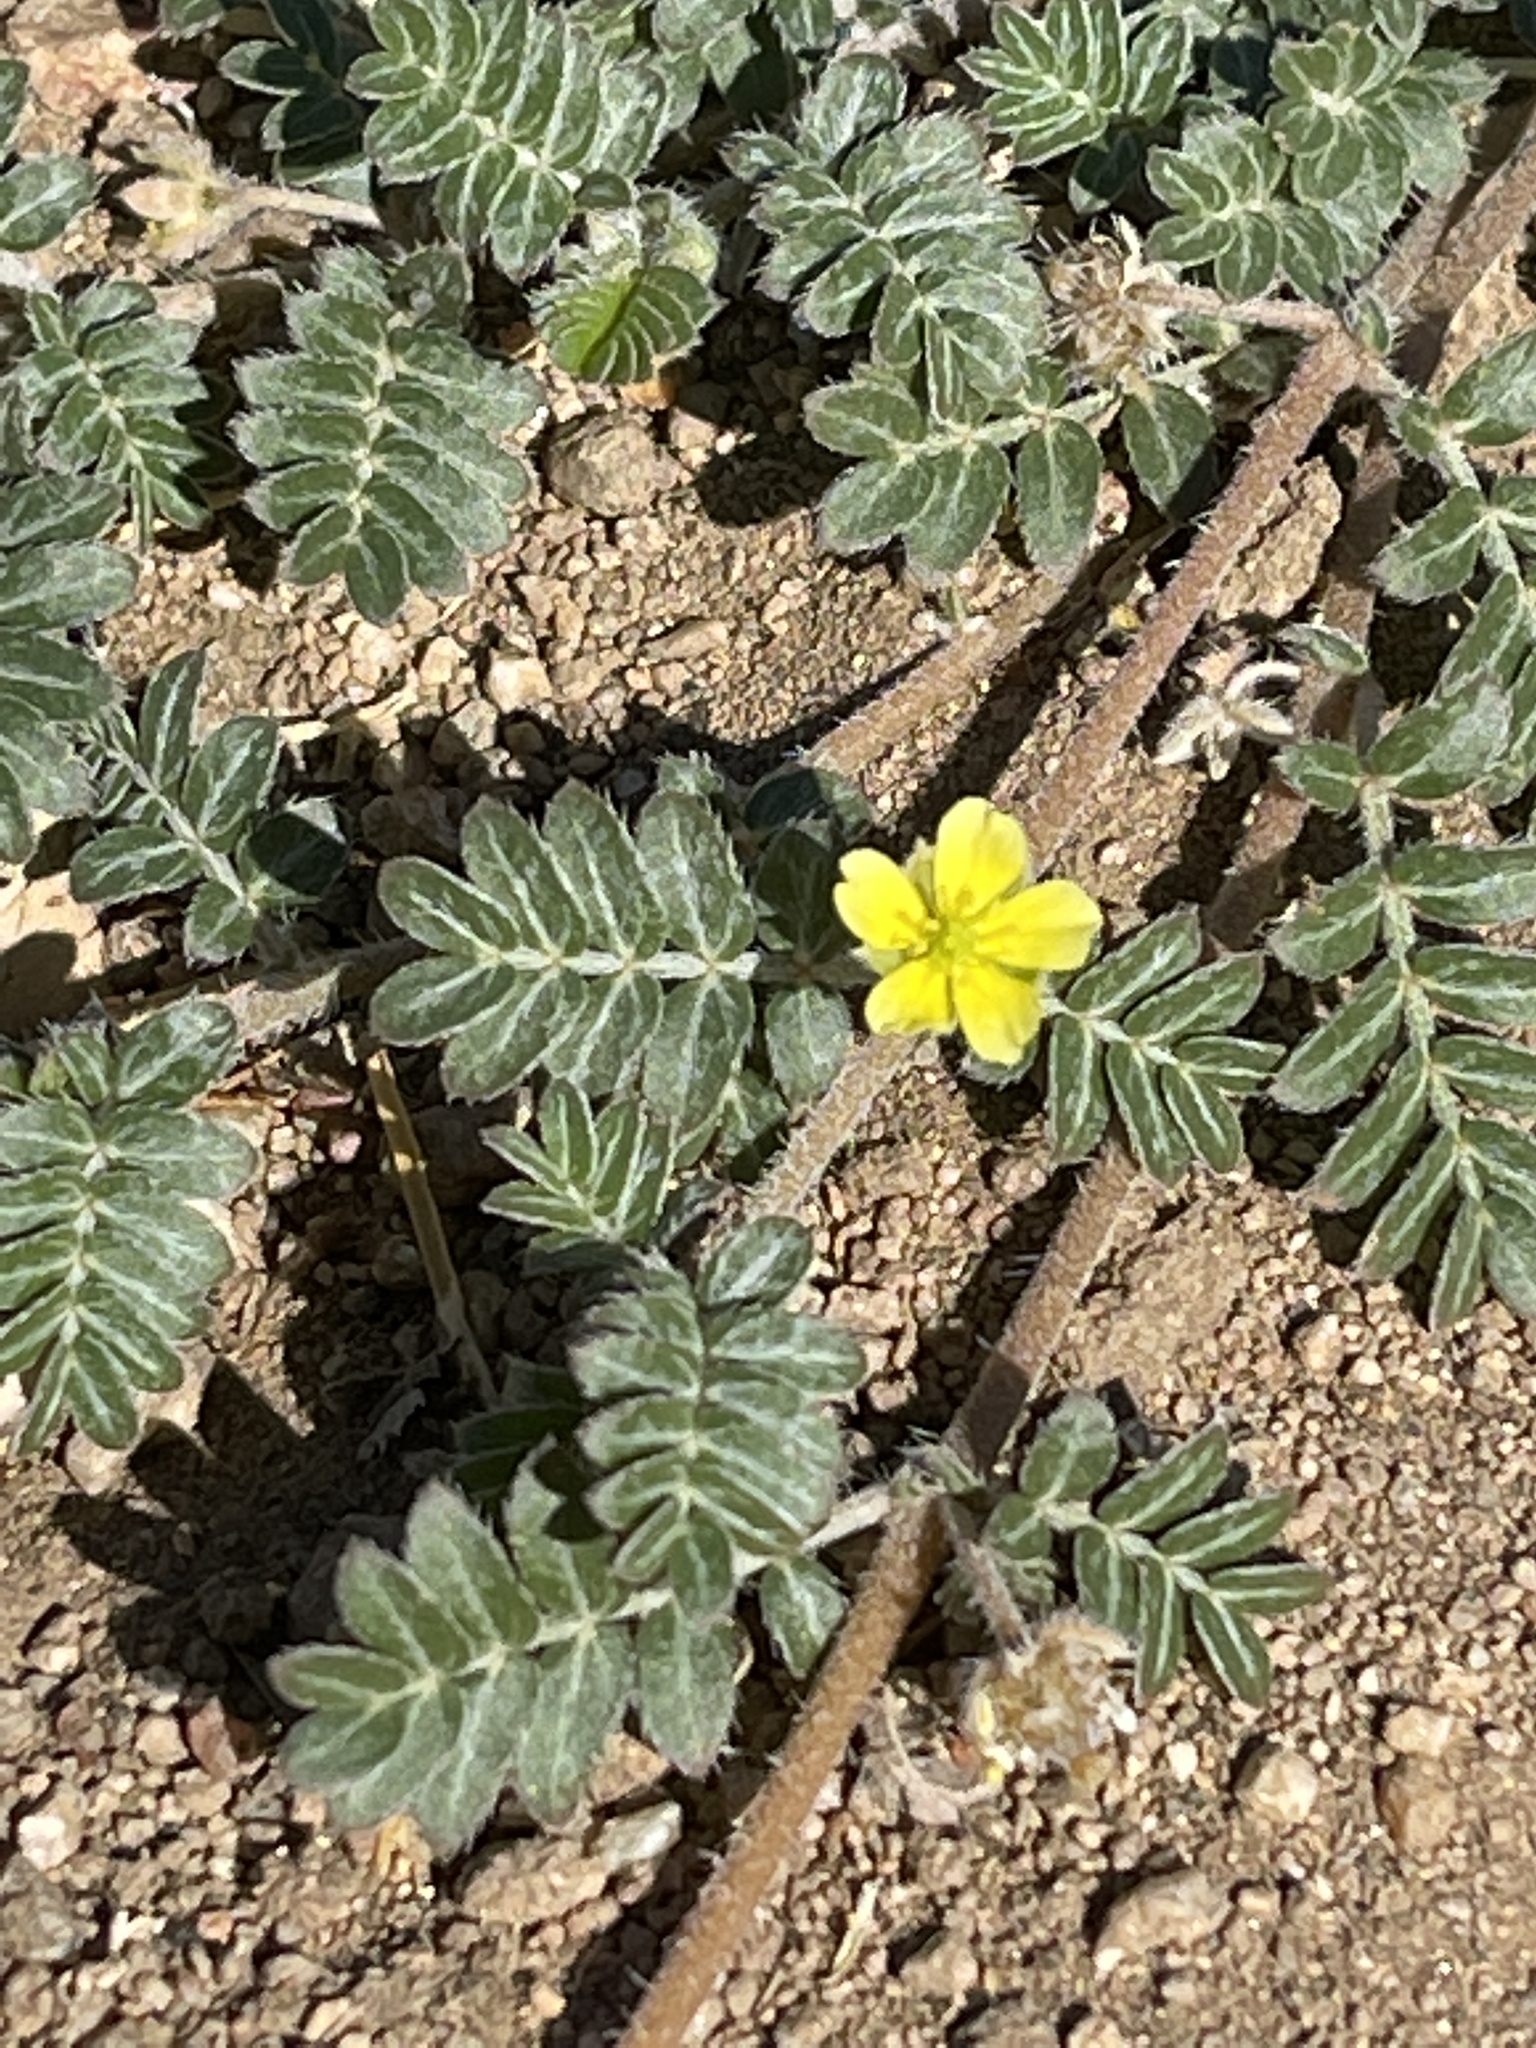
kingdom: Plantae
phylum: Tracheophyta
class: Magnoliopsida
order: Zygophyllales
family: Zygophyllaceae
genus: Tribulus
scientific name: Tribulus terrestris
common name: Puncturevine
